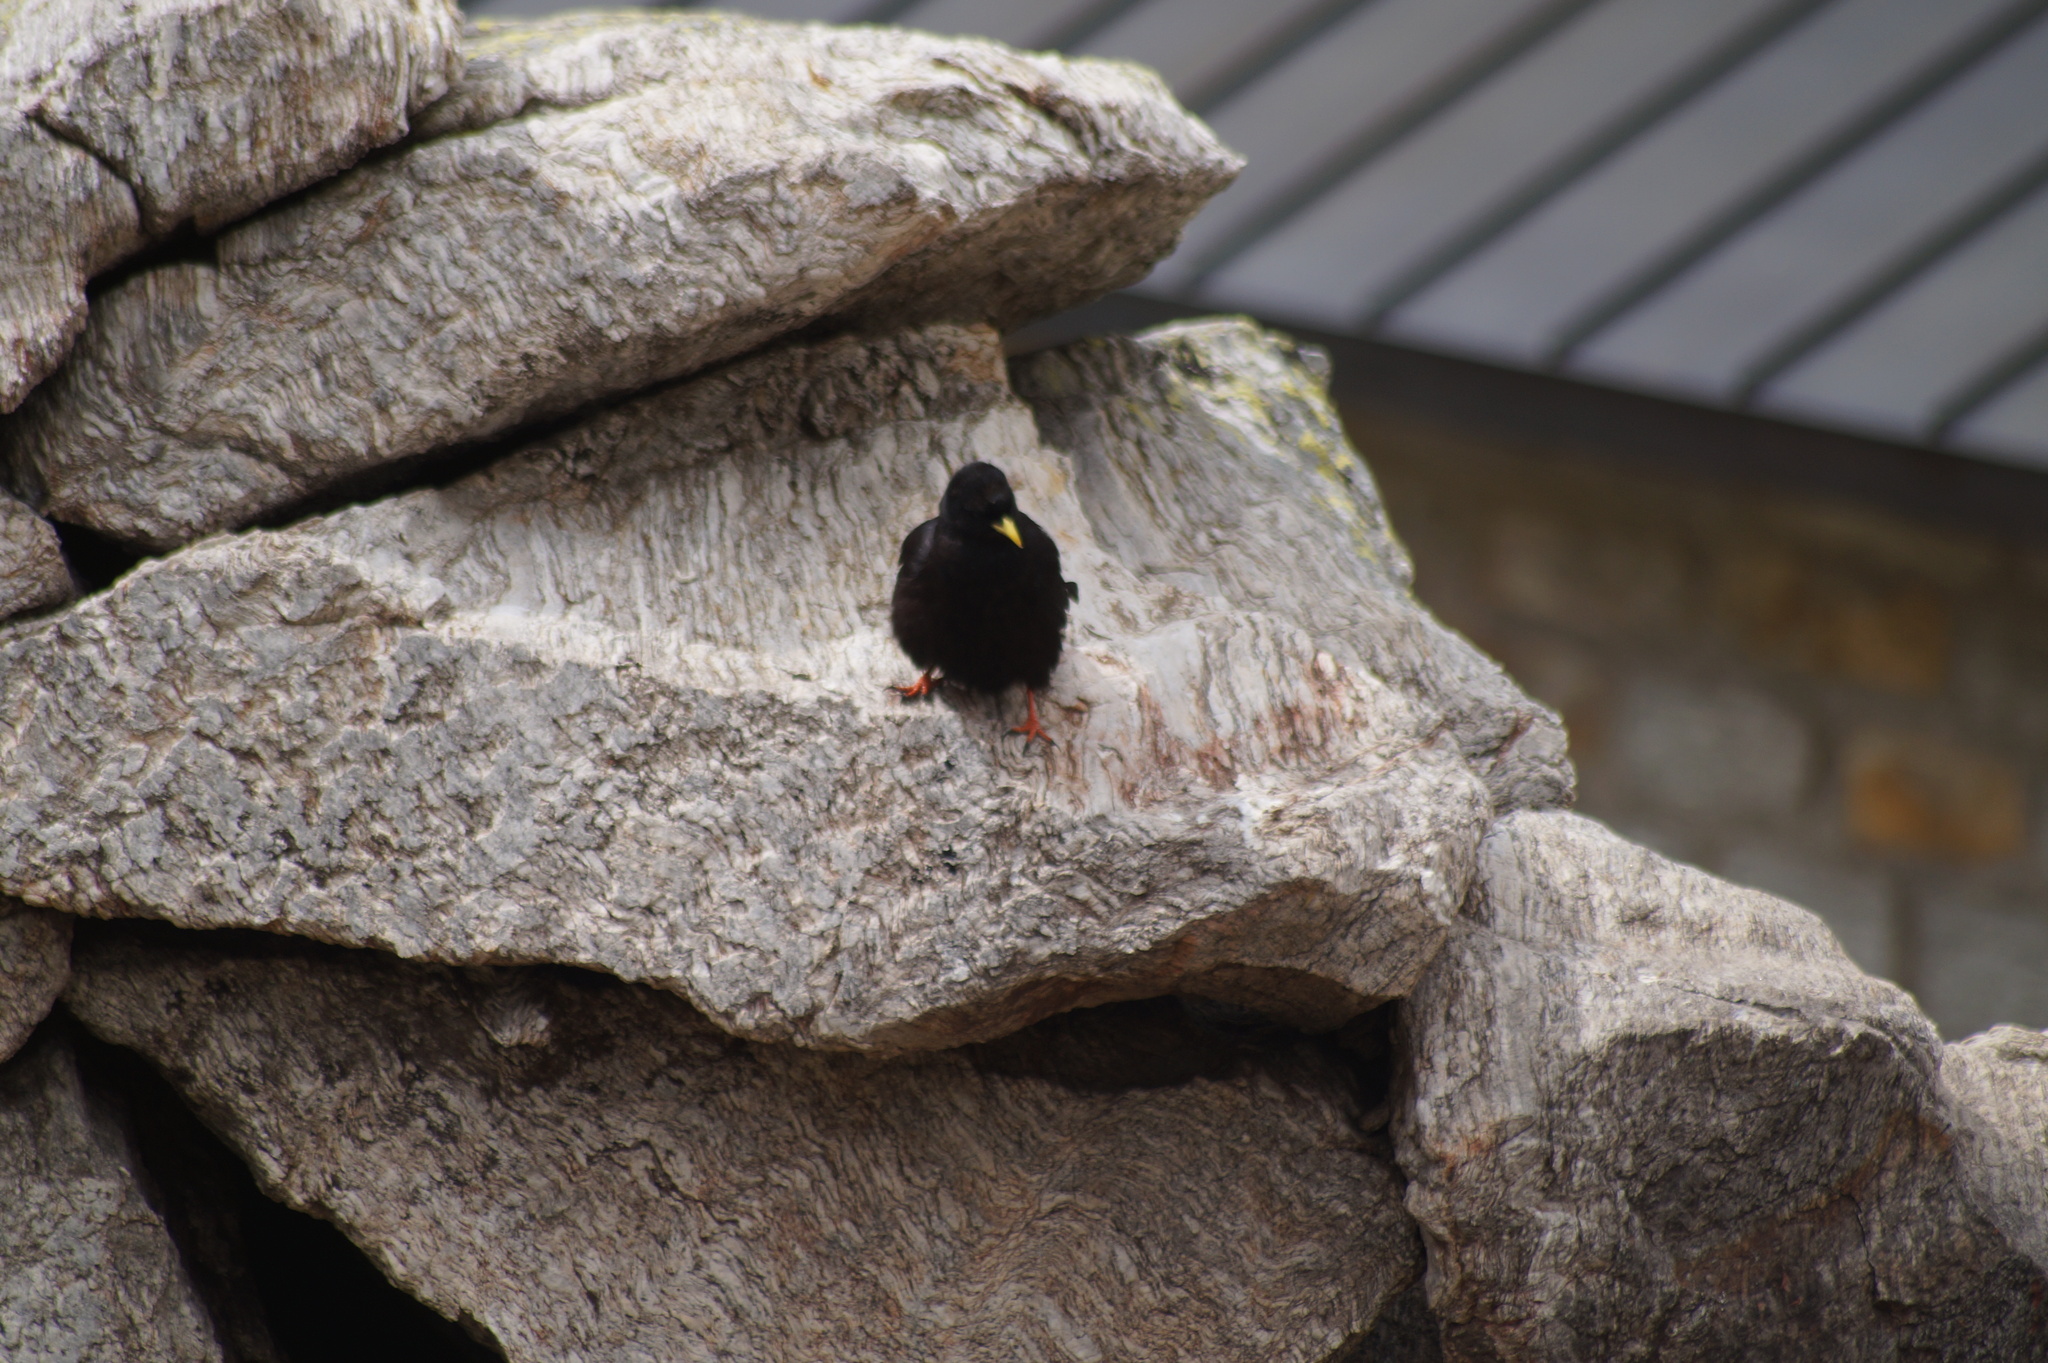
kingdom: Animalia
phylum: Chordata
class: Aves
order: Passeriformes
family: Corvidae
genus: Pyrrhocorax
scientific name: Pyrrhocorax graculus
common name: Alpine chough
